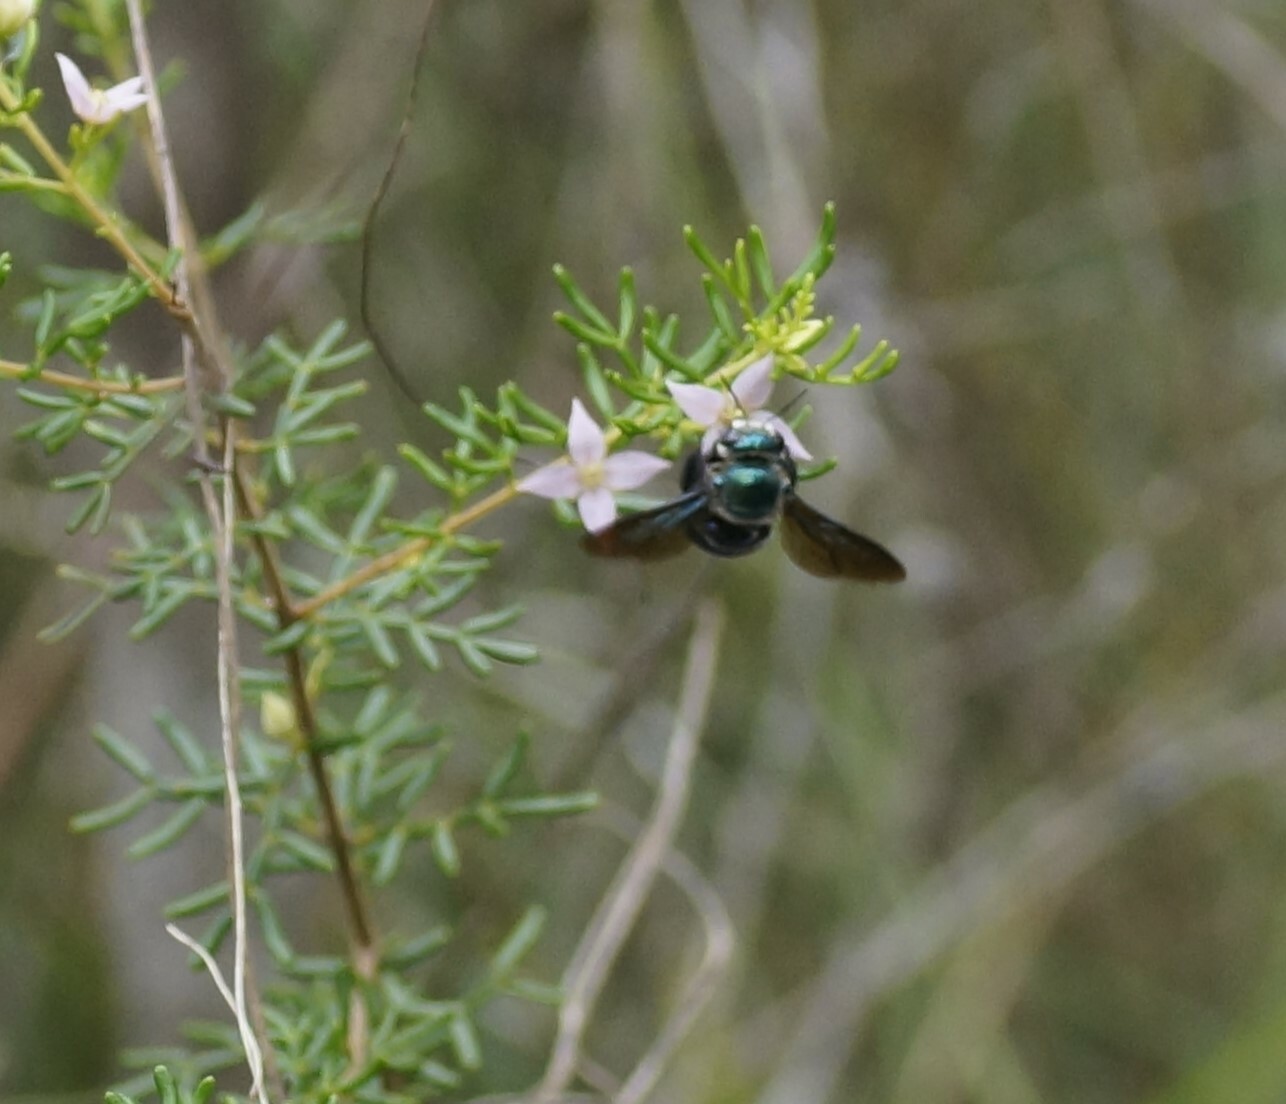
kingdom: Animalia
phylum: Arthropoda
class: Insecta
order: Hymenoptera
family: Apidae
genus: Xylocopa
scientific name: Xylocopa bombylans
